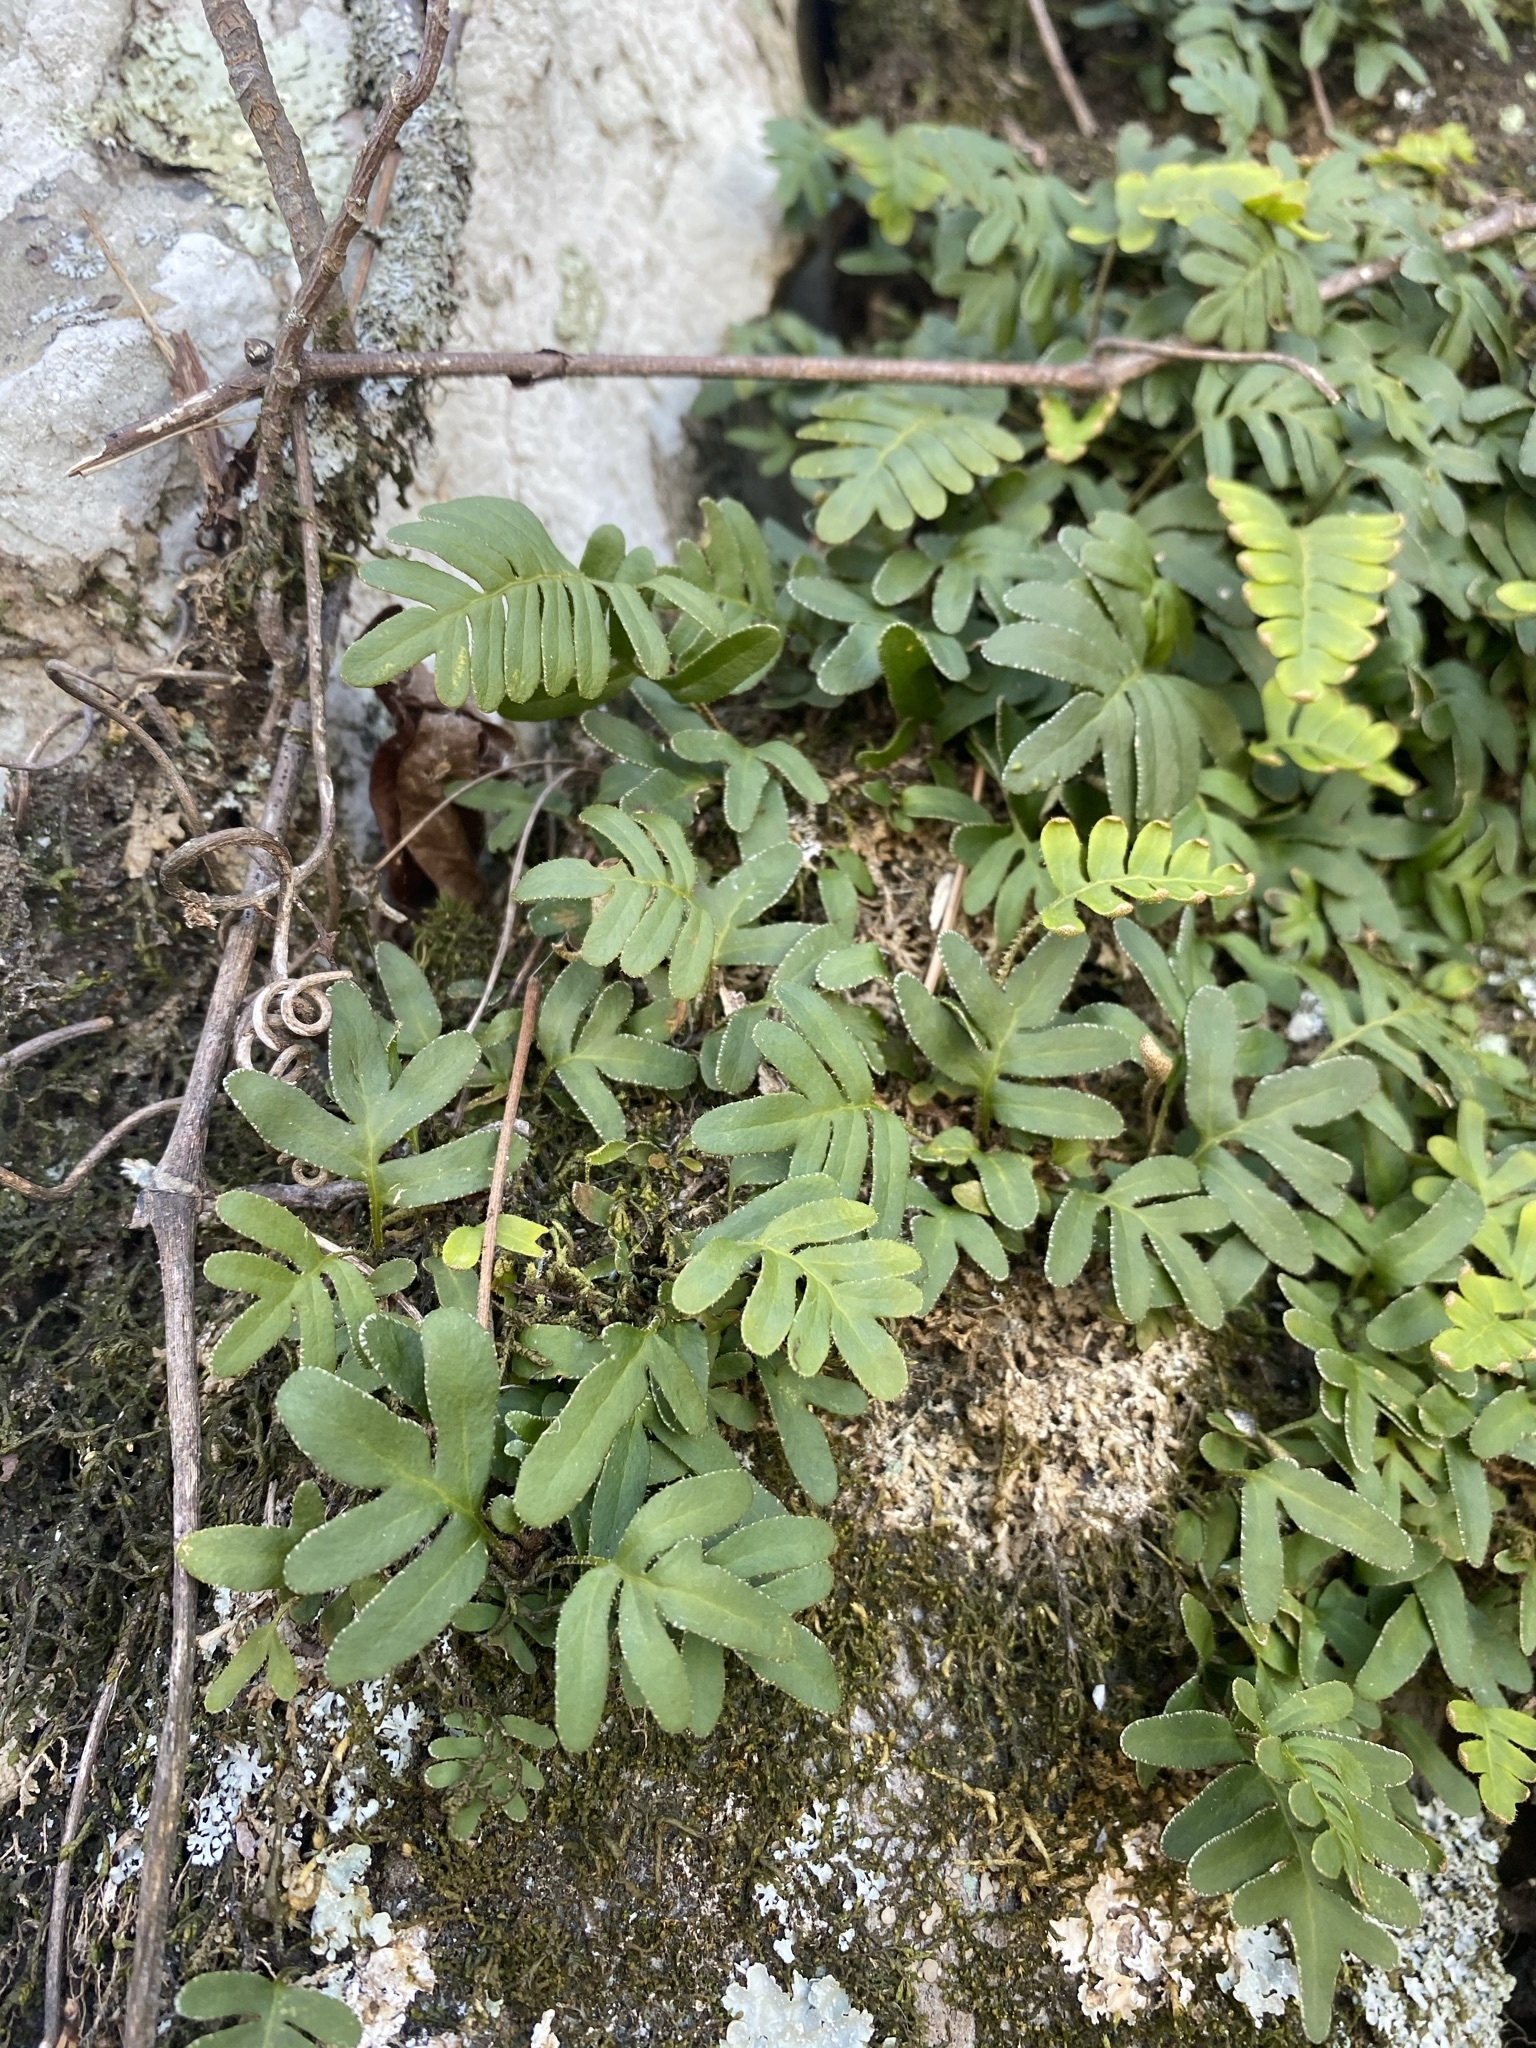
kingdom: Plantae
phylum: Tracheophyta
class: Polypodiopsida
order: Polypodiales
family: Polypodiaceae
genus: Pleopeltis
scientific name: Pleopeltis michauxiana
